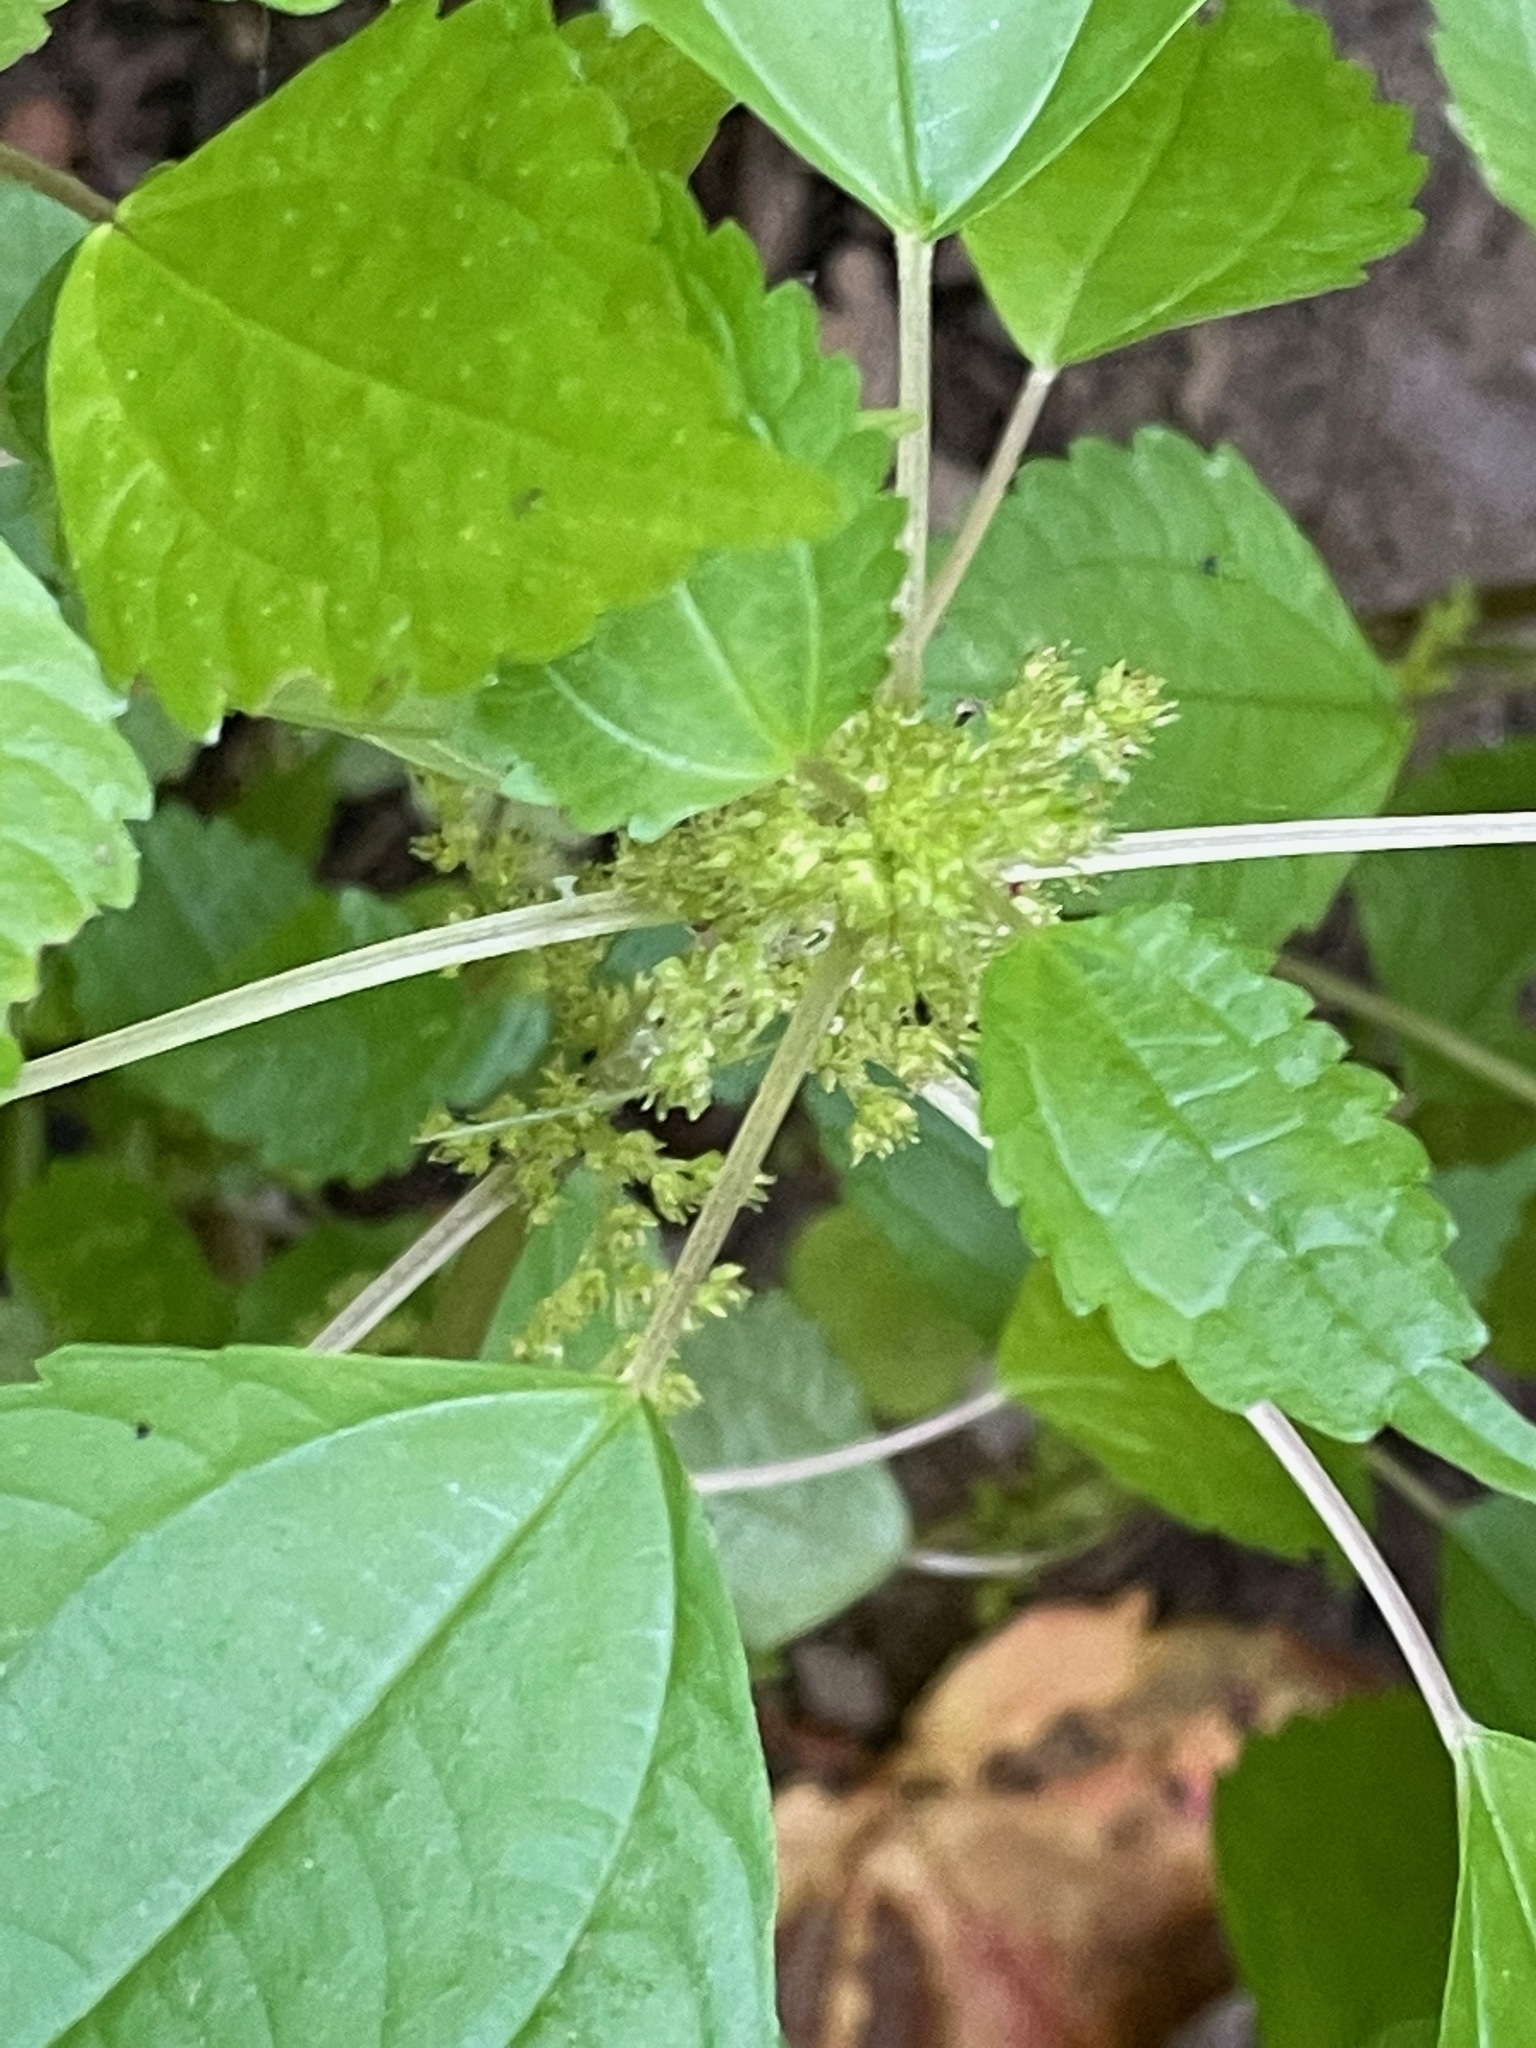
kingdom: Plantae
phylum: Tracheophyta
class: Magnoliopsida
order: Rosales
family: Urticaceae
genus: Pilea
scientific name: Pilea pumila
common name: Clearweed
